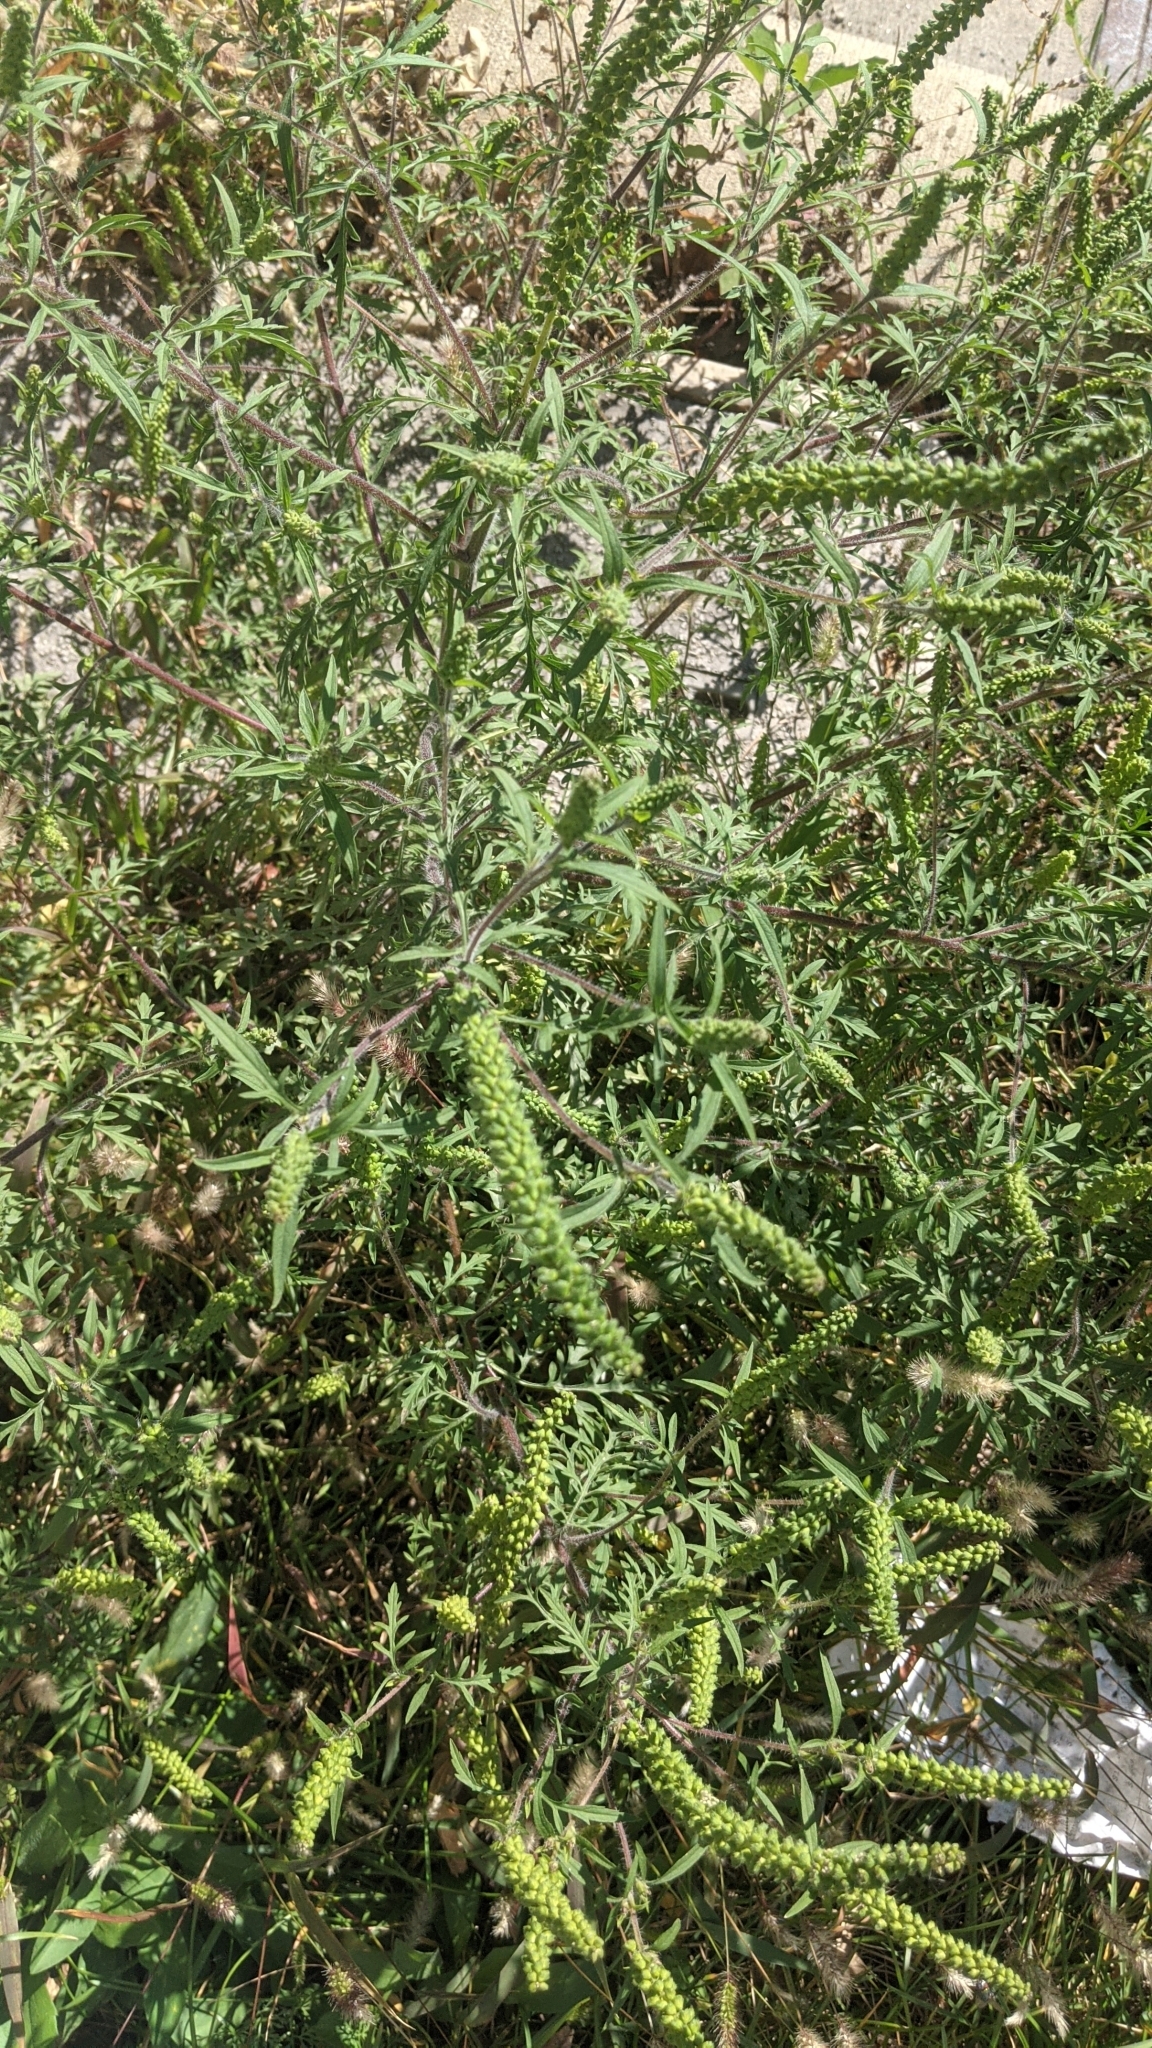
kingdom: Plantae
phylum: Tracheophyta
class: Magnoliopsida
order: Asterales
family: Asteraceae
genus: Ambrosia
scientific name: Ambrosia artemisiifolia
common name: Annual ragweed
